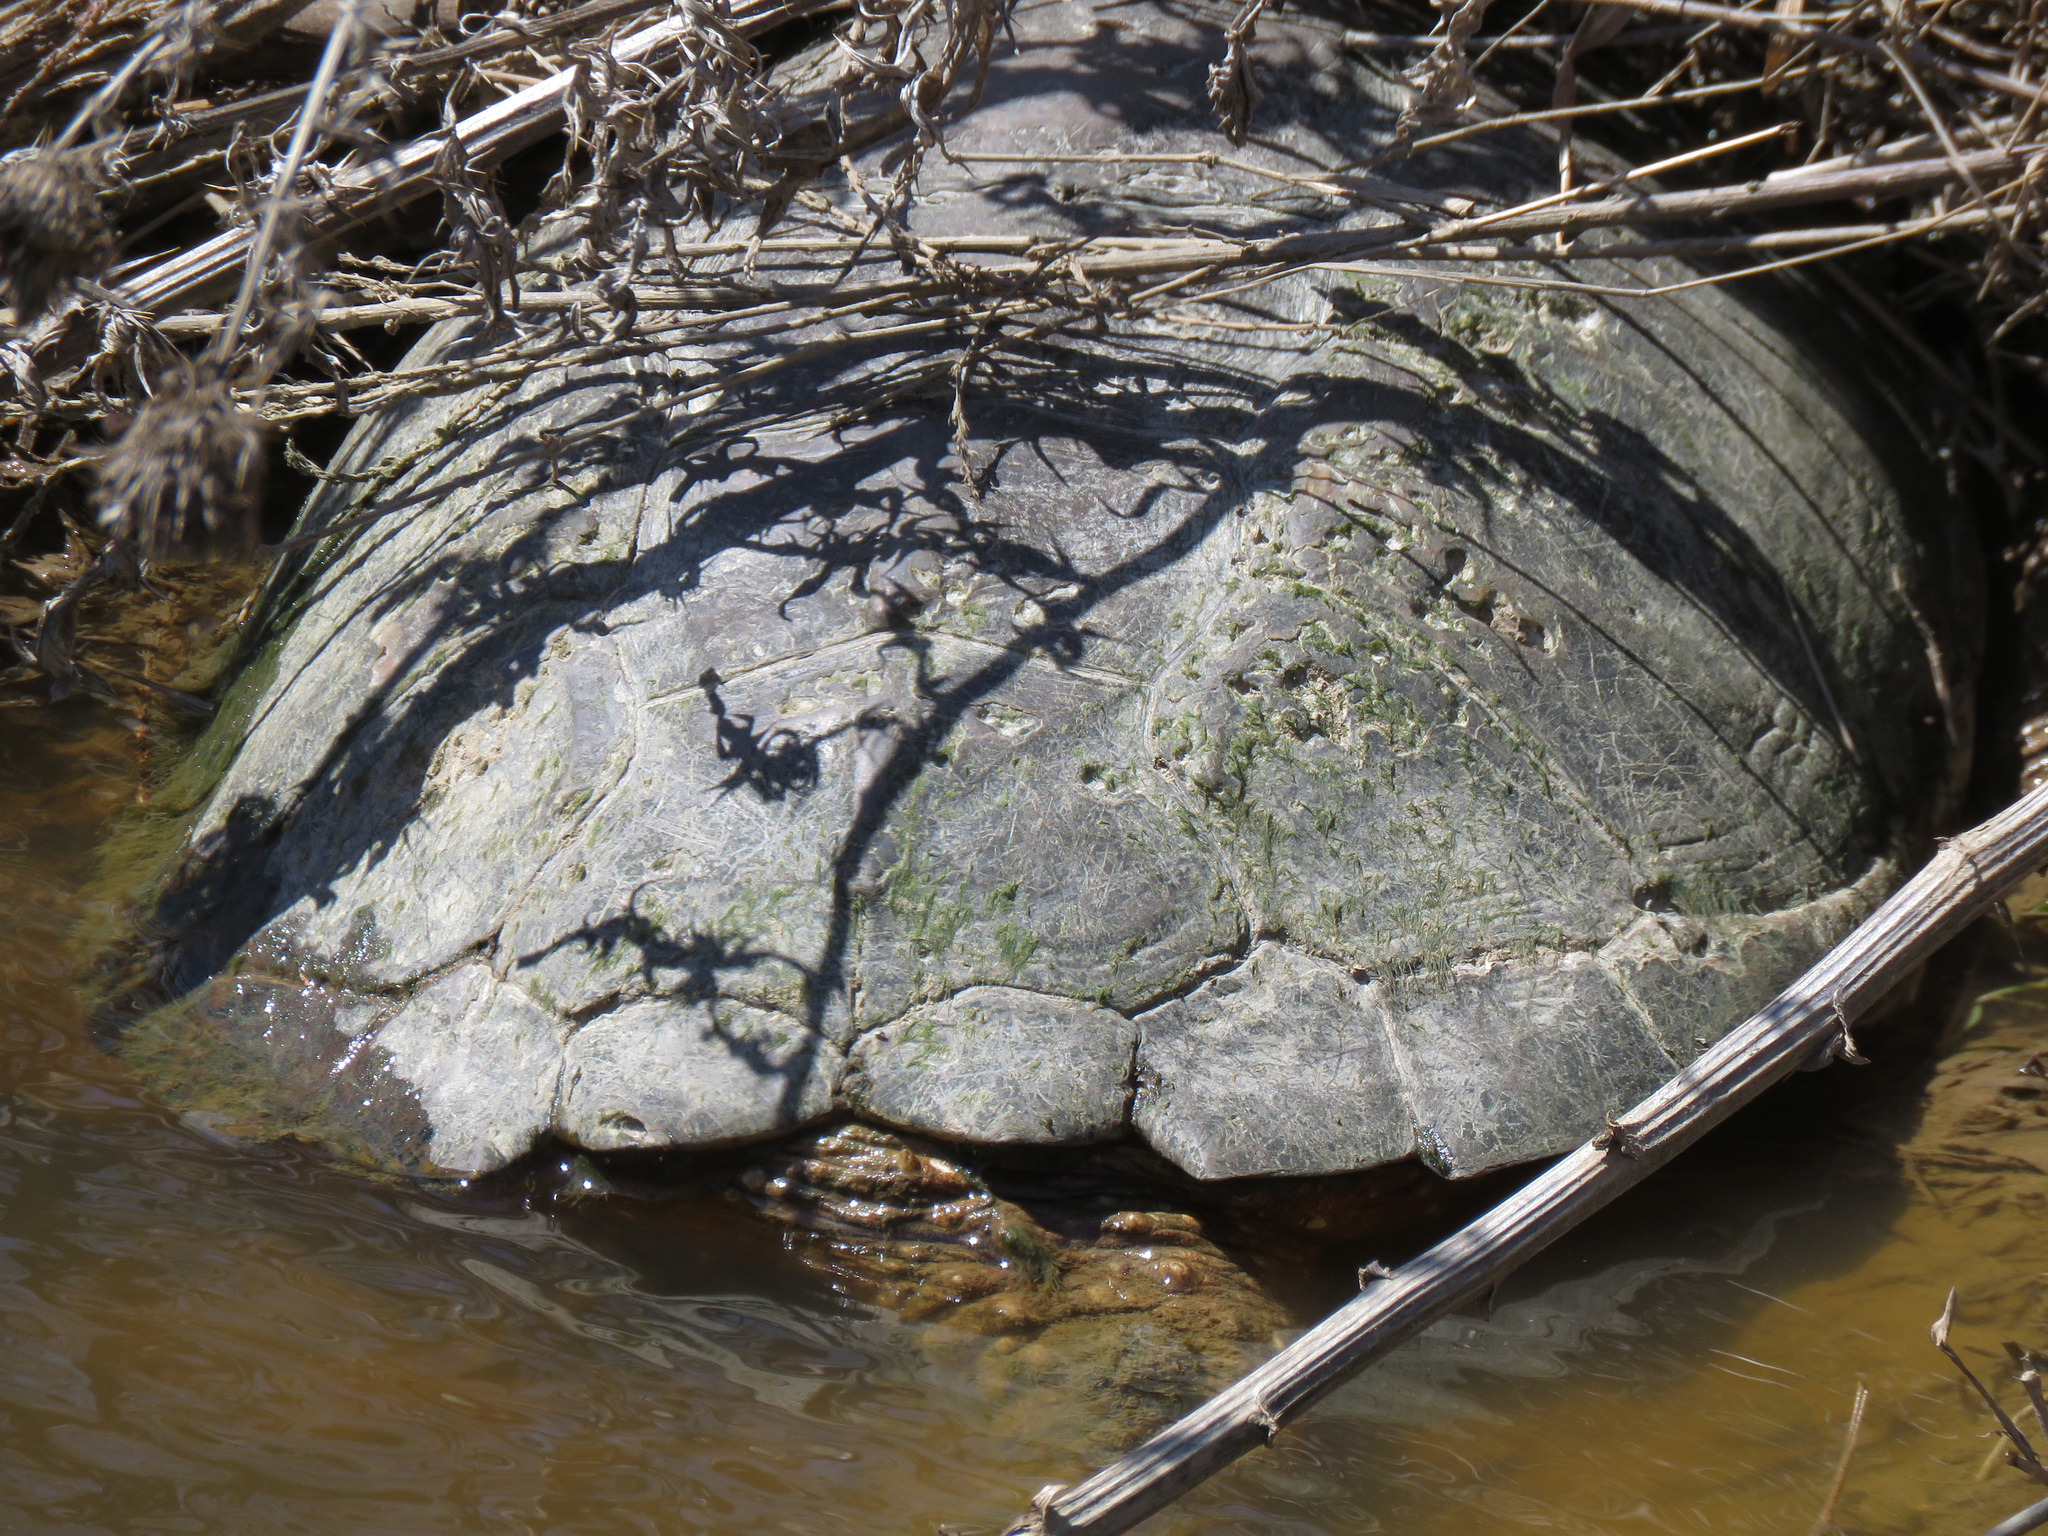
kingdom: Animalia
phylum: Chordata
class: Testudines
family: Chelydridae
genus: Chelydra
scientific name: Chelydra serpentina
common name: Common snapping turtle
